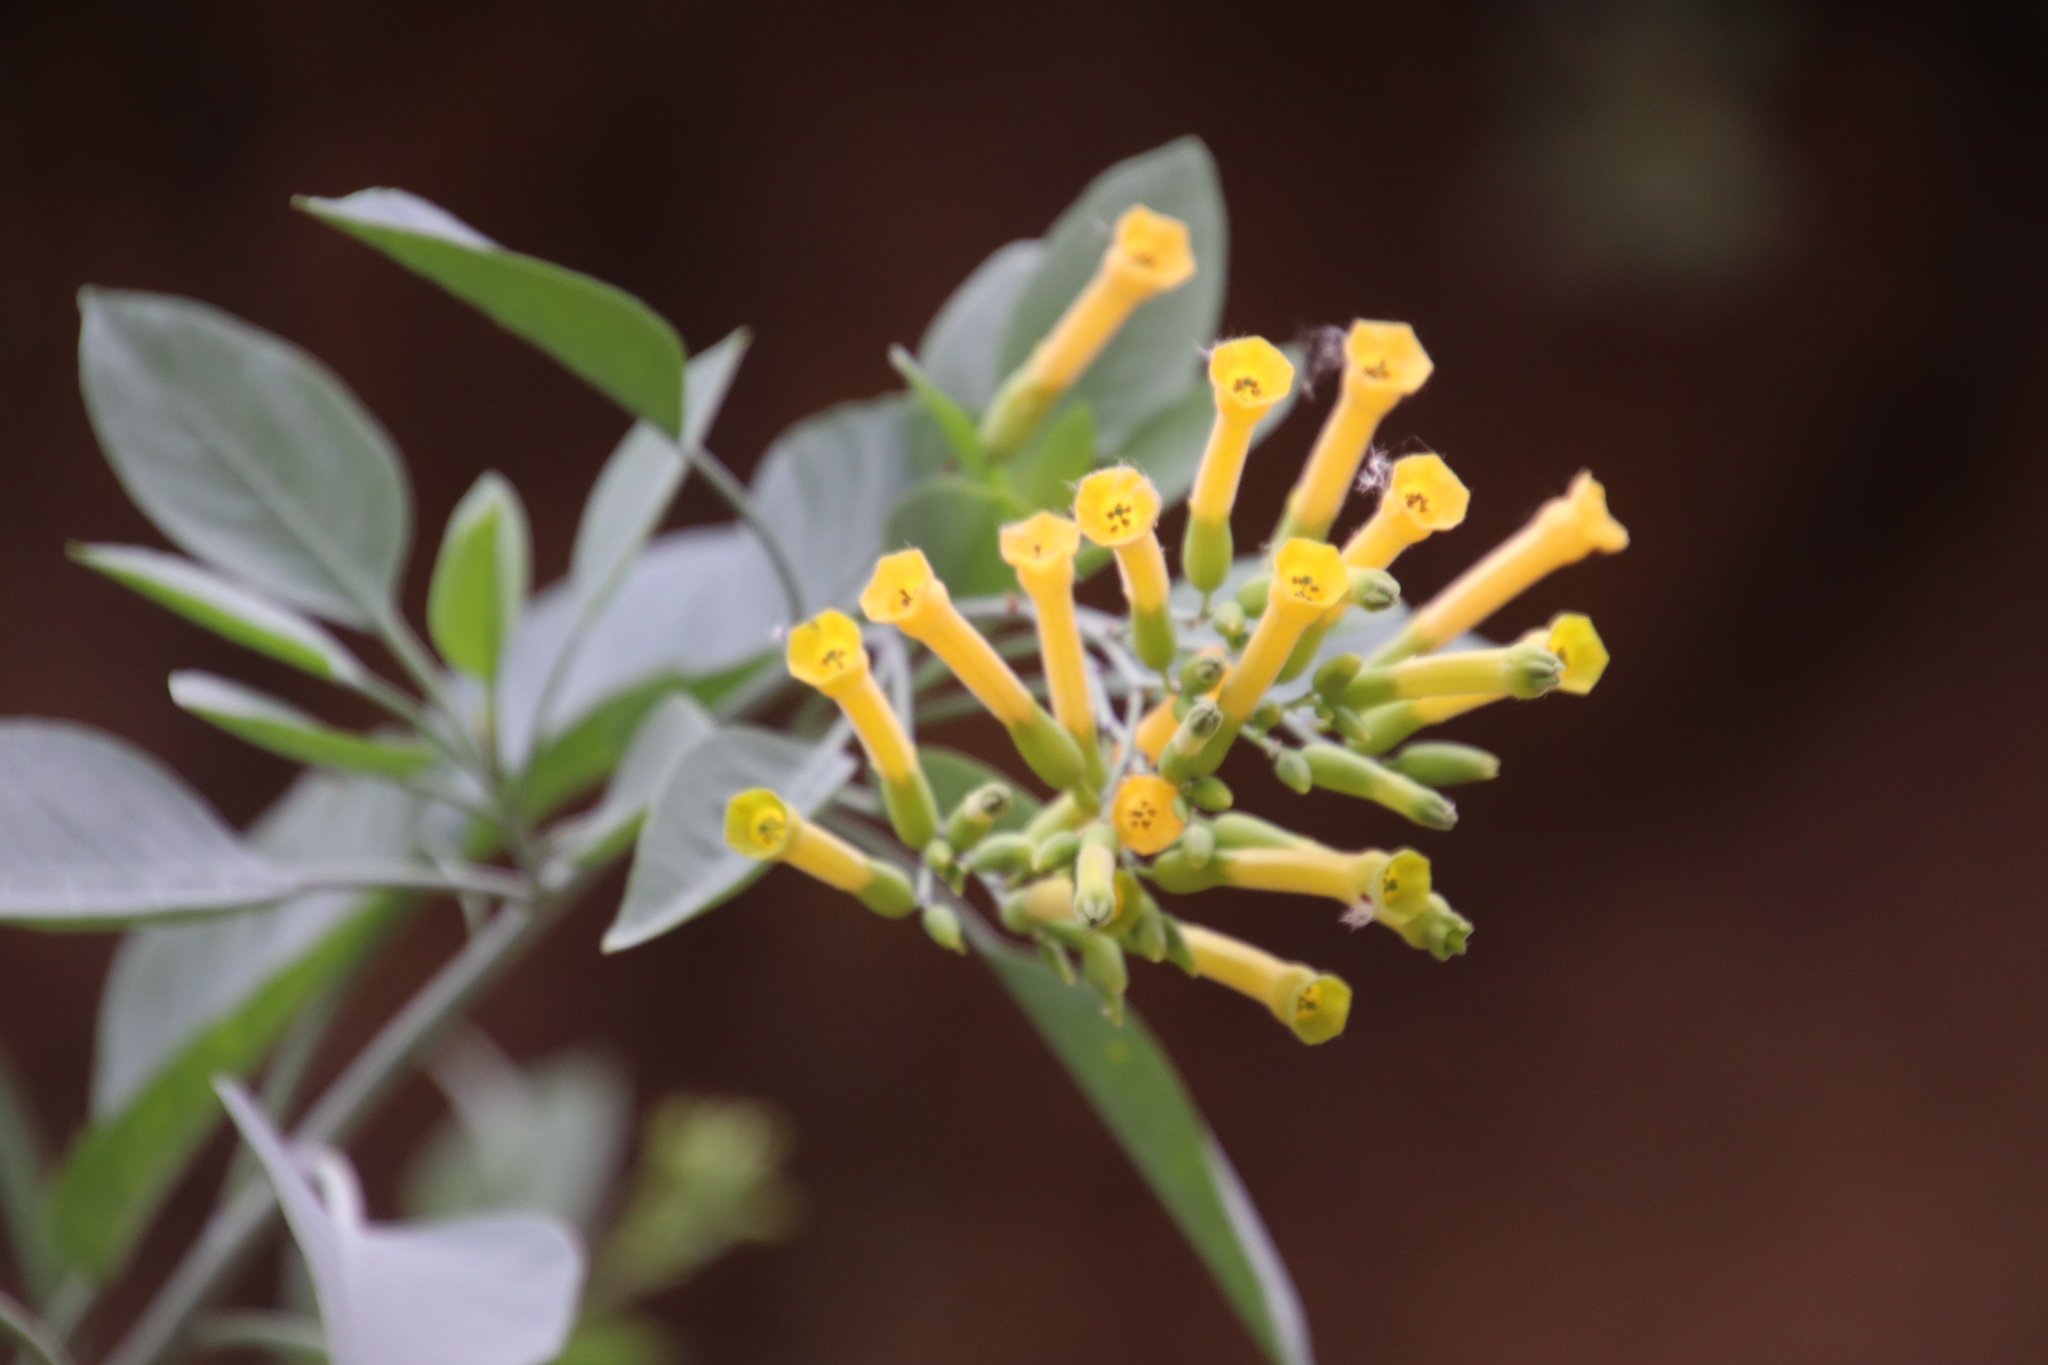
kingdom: Plantae
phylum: Tracheophyta
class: Magnoliopsida
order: Solanales
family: Solanaceae
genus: Nicotiana
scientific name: Nicotiana glauca
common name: Tree tobacco
